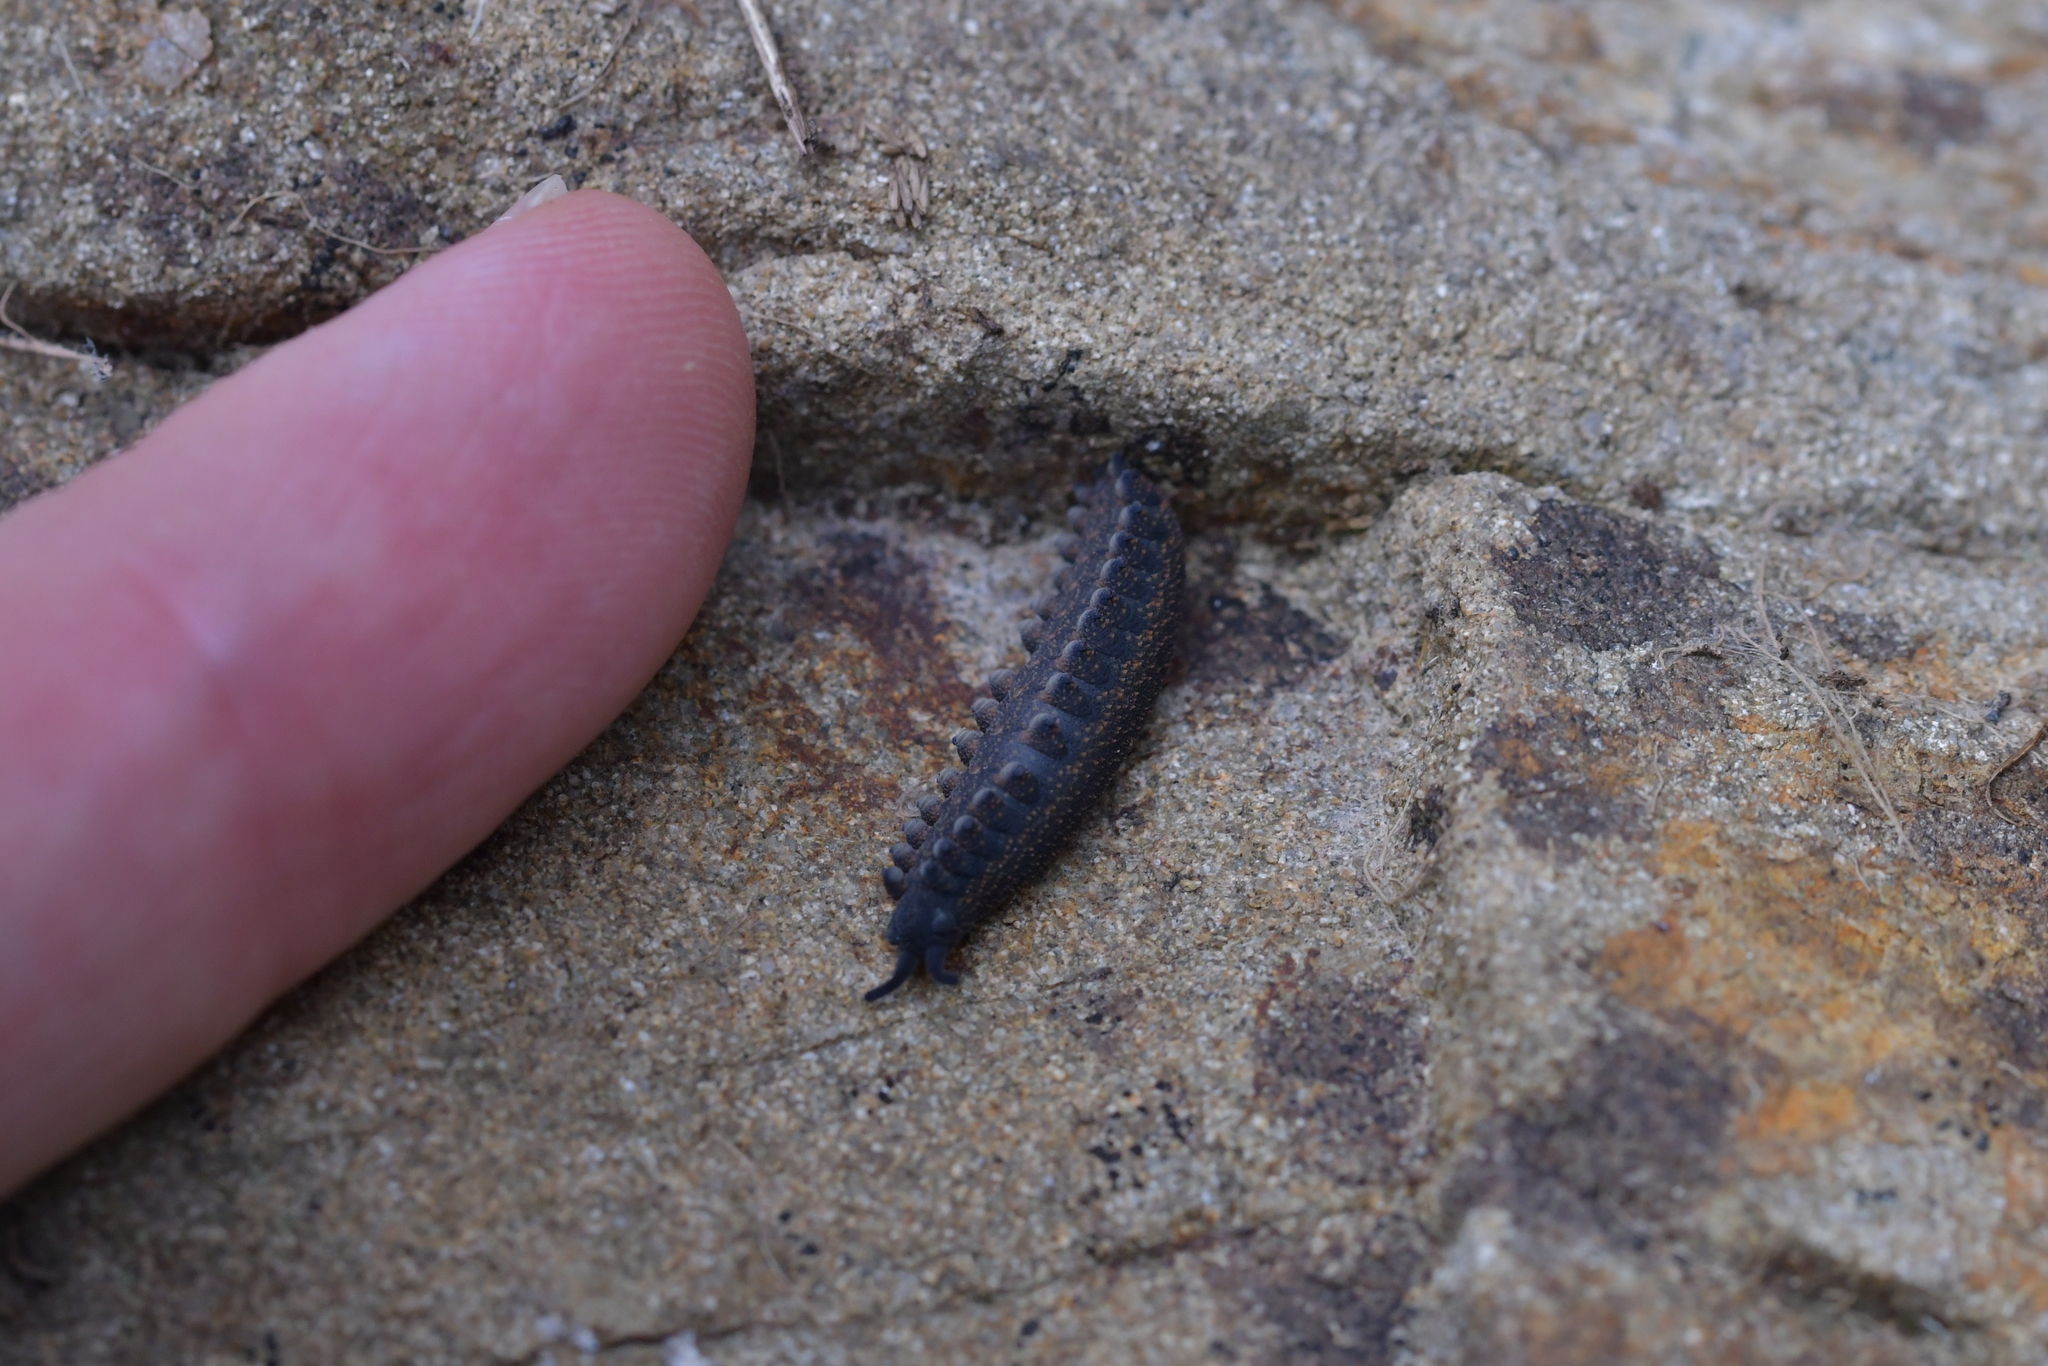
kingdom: Animalia
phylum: Onychophora
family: Peripatopsidae
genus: Peripatoides
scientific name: Peripatoides novaezealandiae
